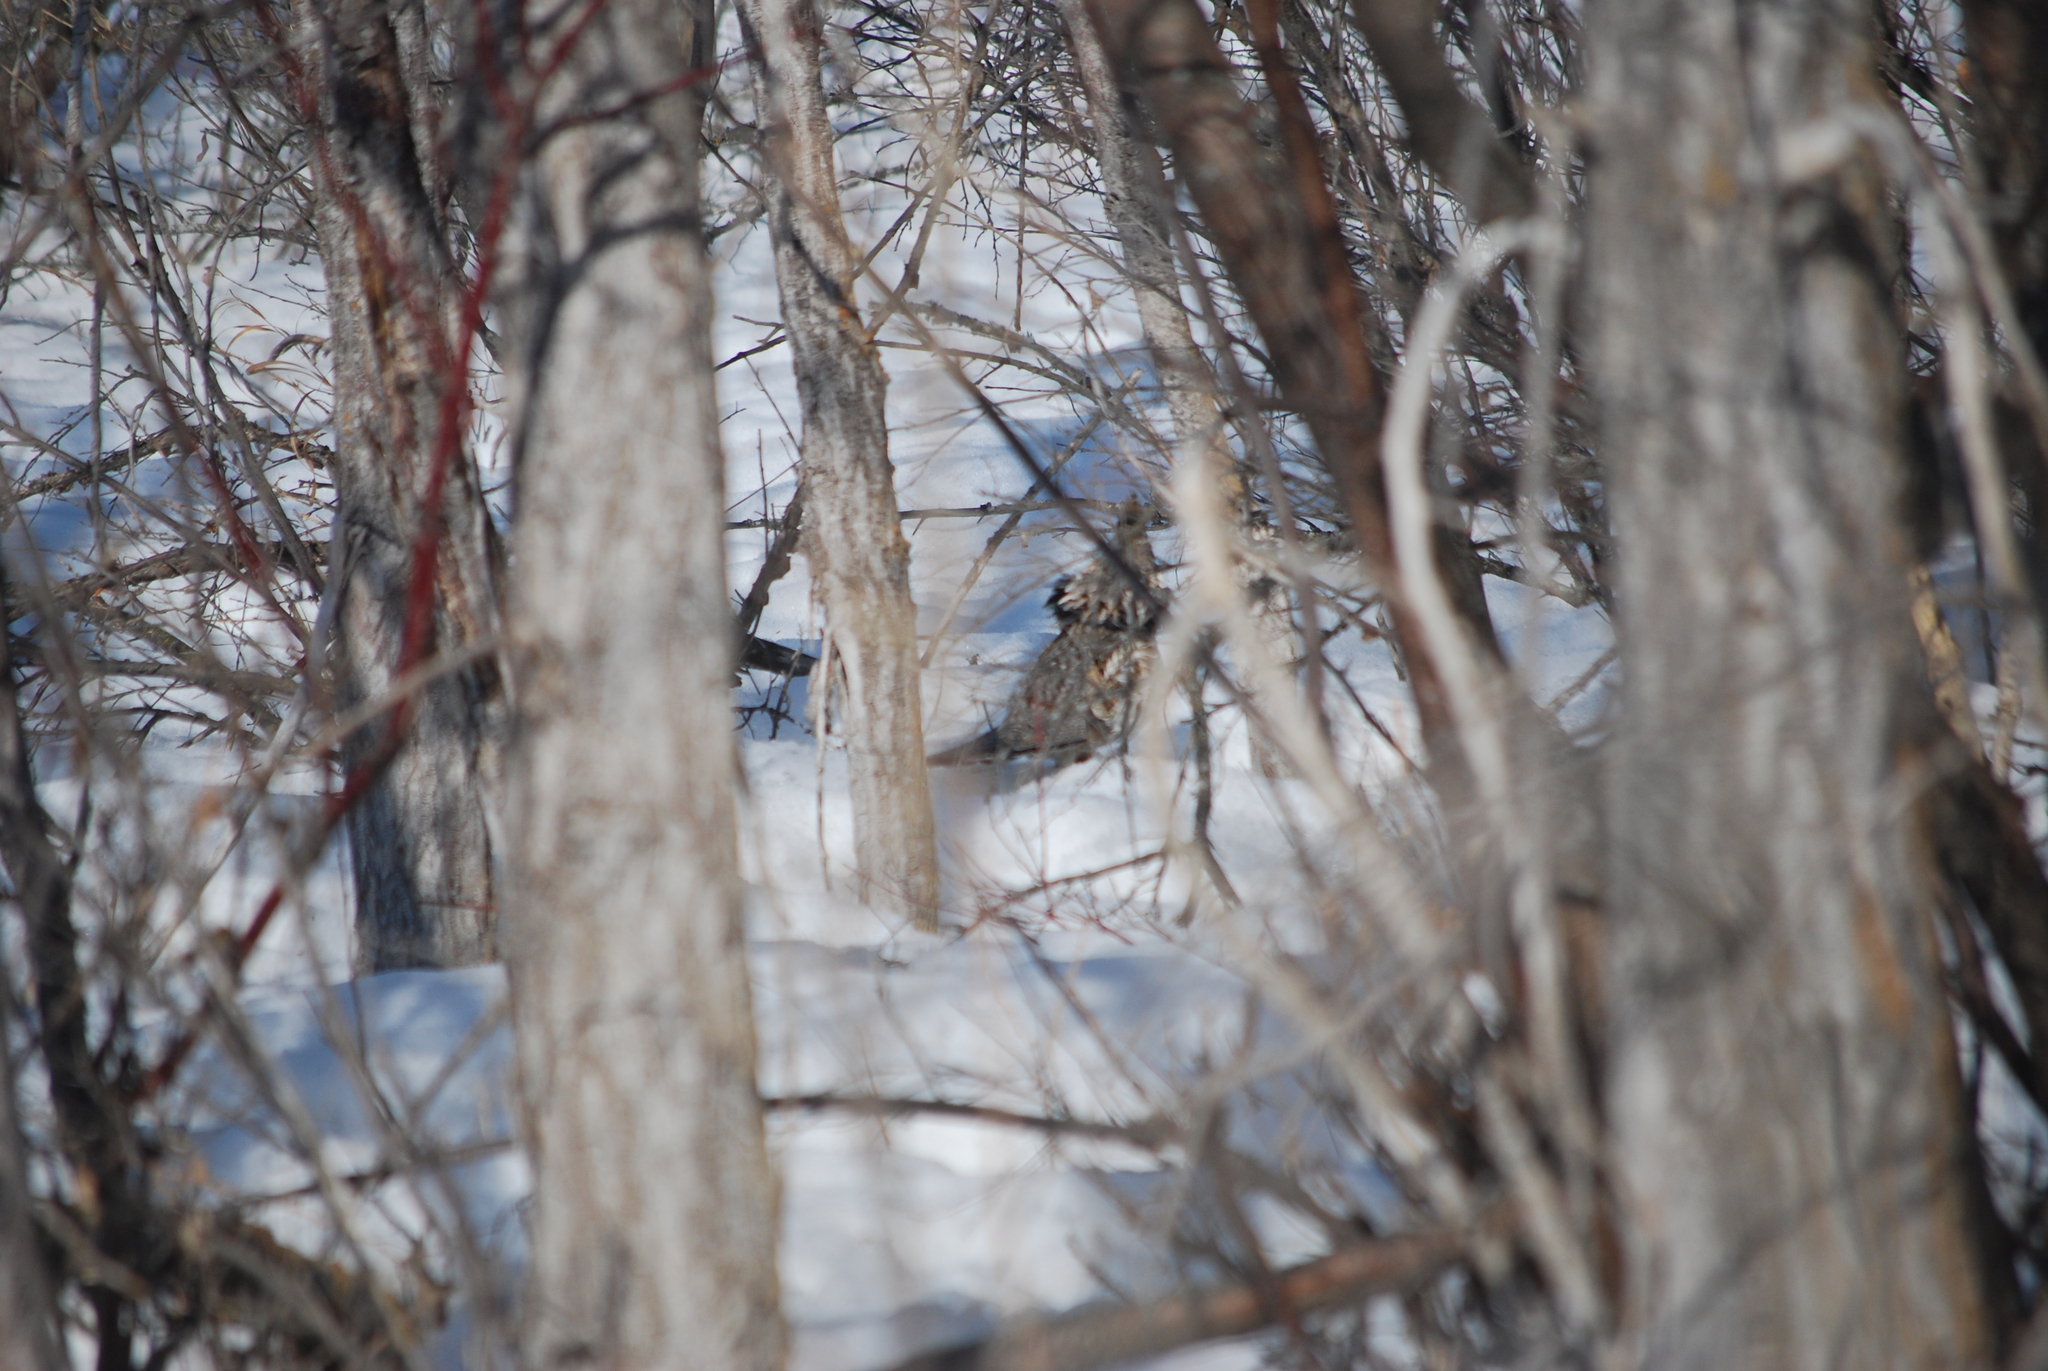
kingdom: Animalia
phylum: Chordata
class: Aves
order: Galliformes
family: Phasianidae
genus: Bonasa
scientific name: Bonasa umbellus
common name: Ruffed grouse
